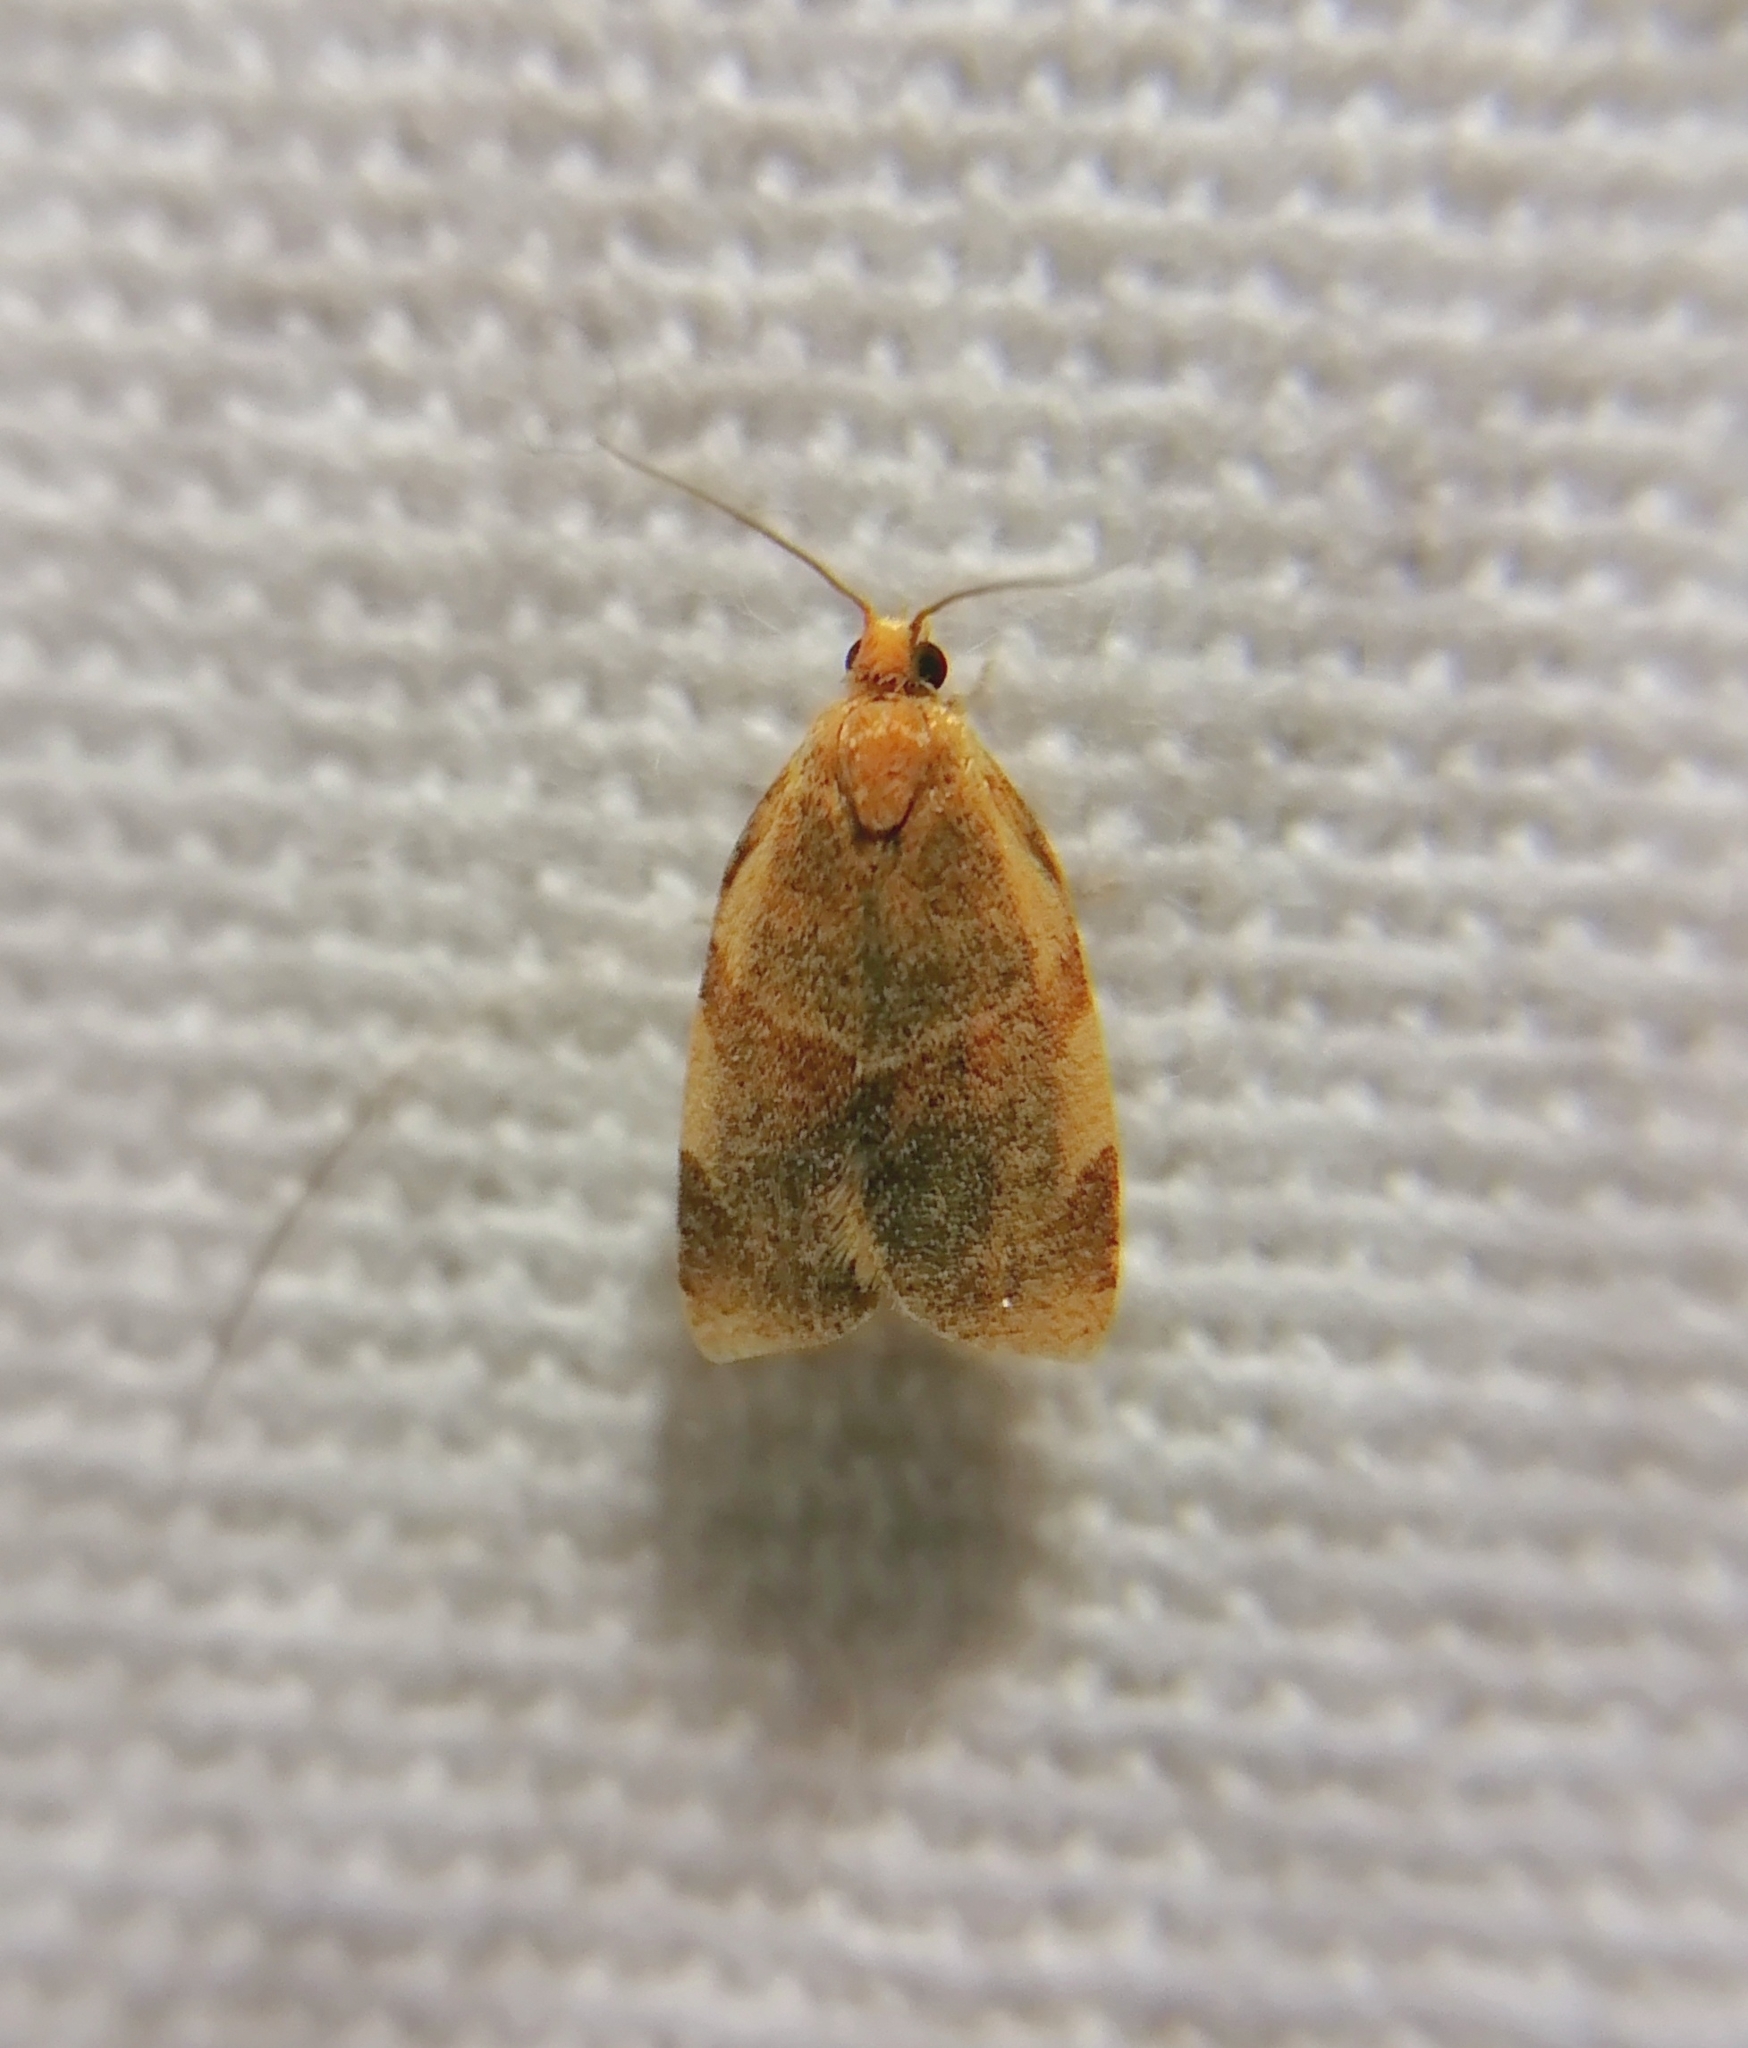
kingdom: Animalia
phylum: Arthropoda
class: Insecta
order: Lepidoptera
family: Tortricidae
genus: Clepsis
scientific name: Clepsis rurinana
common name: Pale twist
